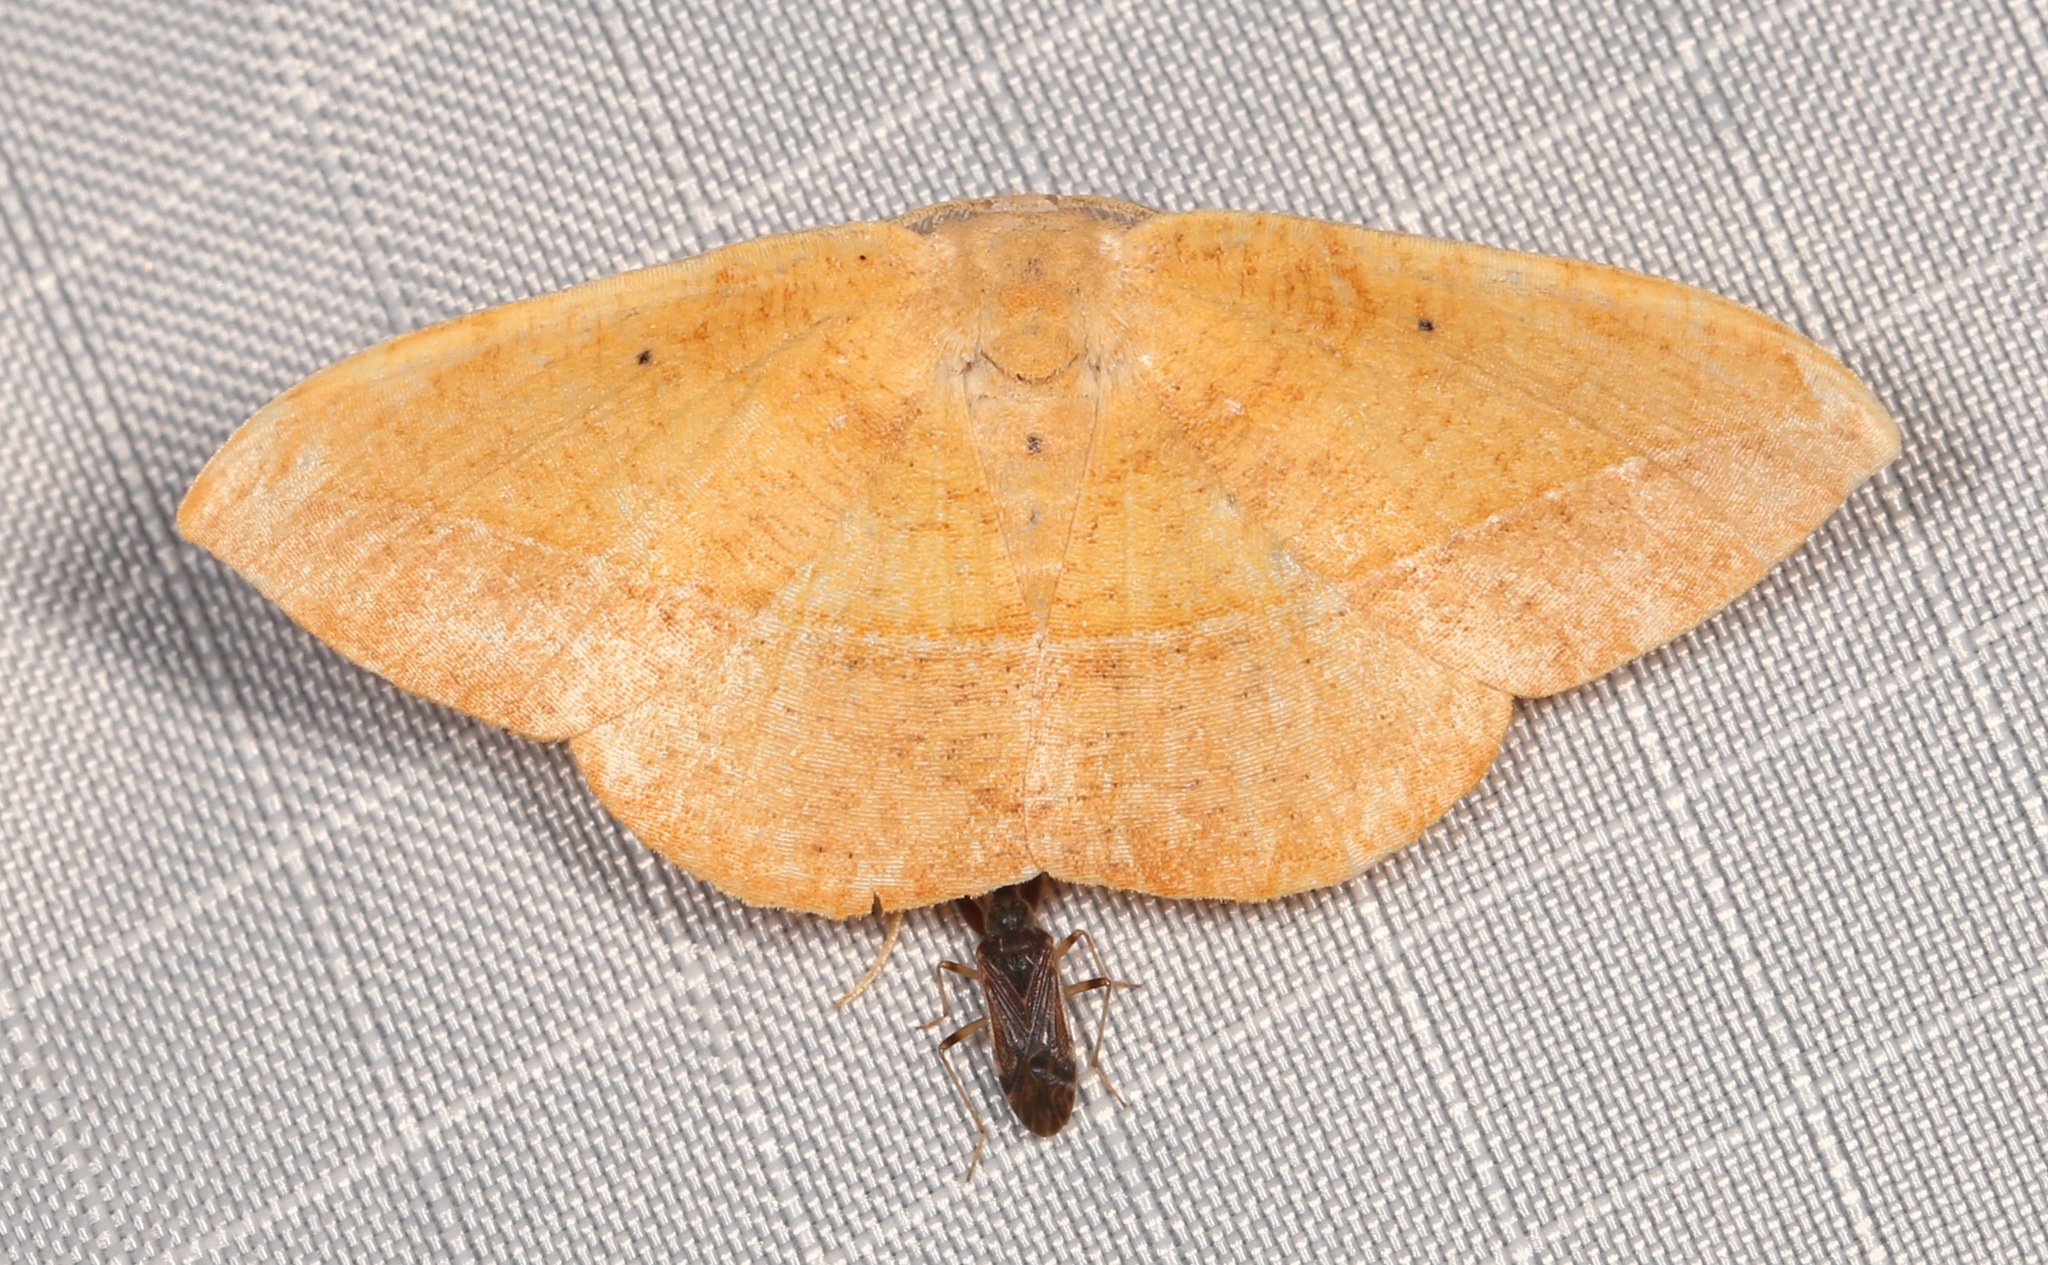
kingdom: Animalia
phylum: Arthropoda
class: Insecta
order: Lepidoptera
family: Geometridae
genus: Patalene
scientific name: Patalene olyzonaria
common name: Juniper geometer moth
